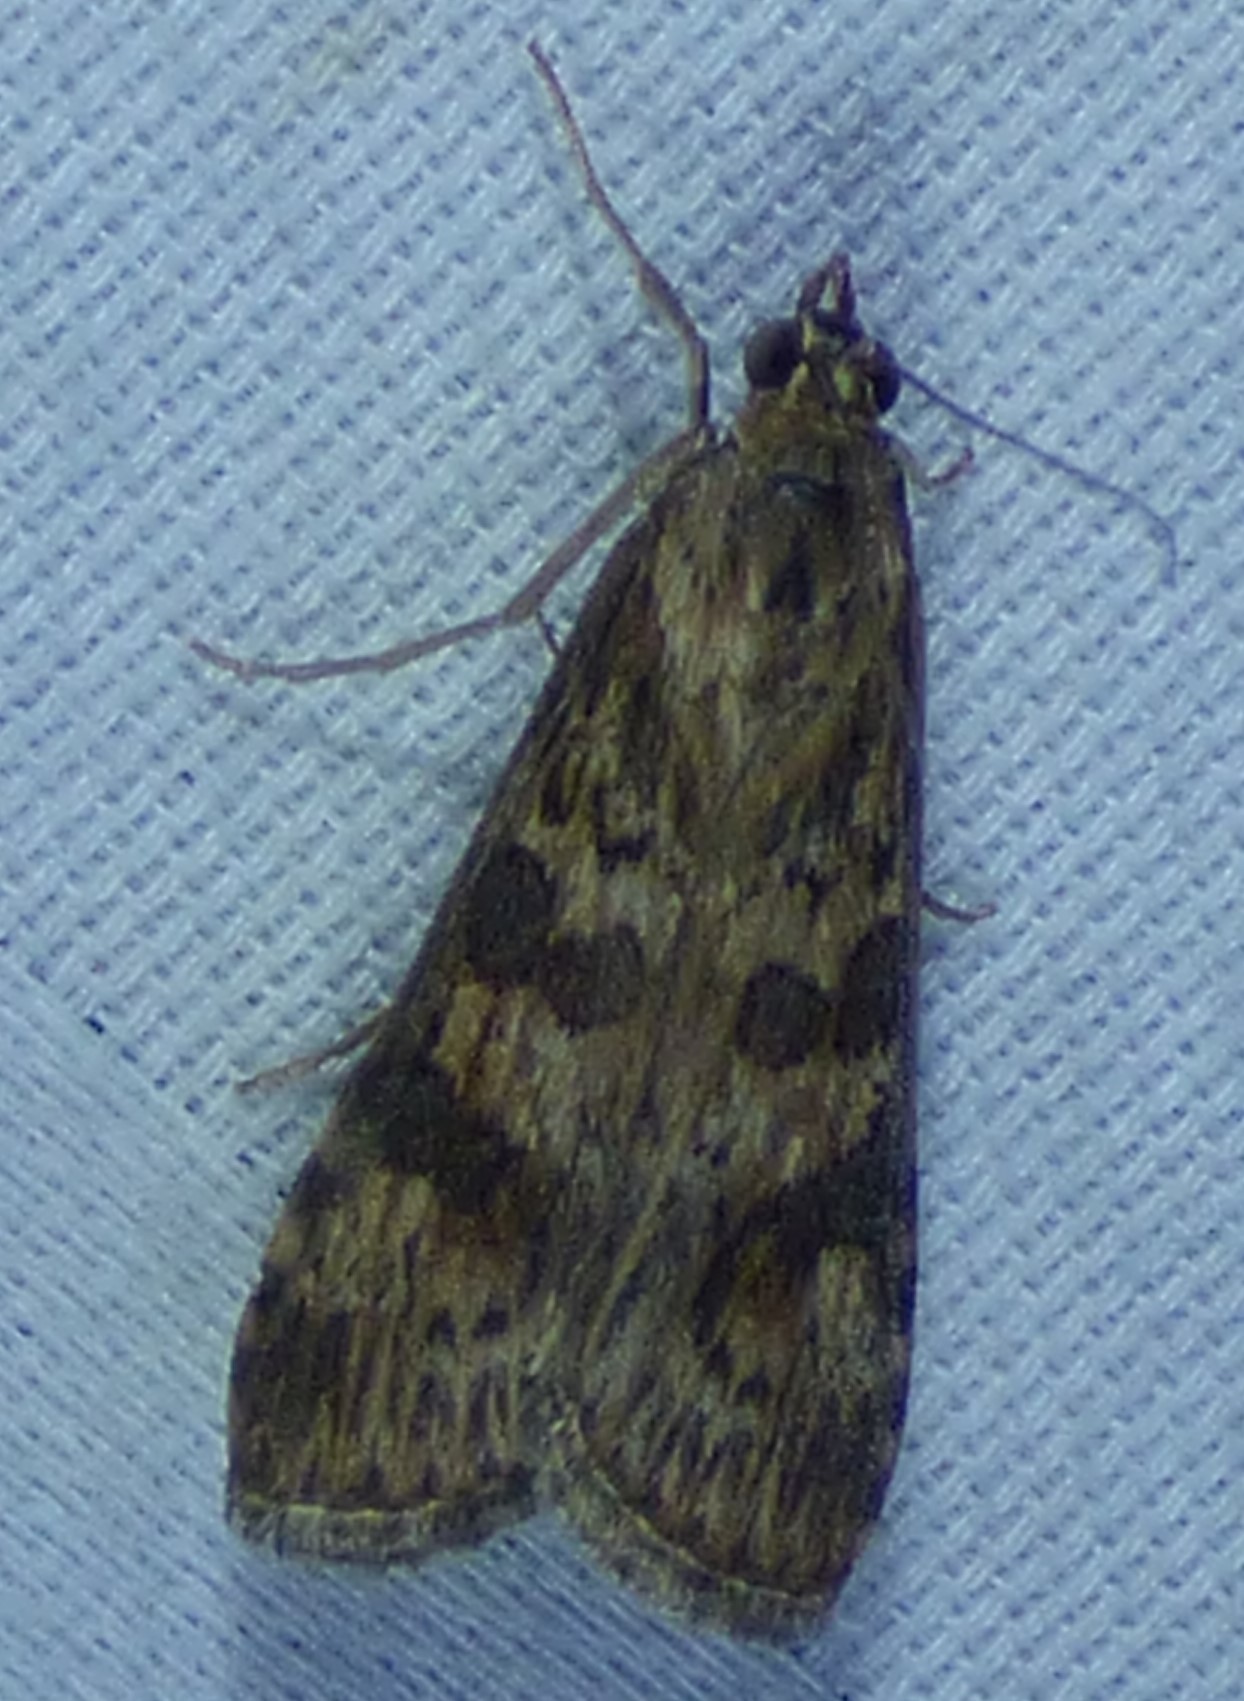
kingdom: Animalia
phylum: Arthropoda
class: Insecta
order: Lepidoptera
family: Crambidae
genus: Nomophila
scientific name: Nomophila nearctica
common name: American rush veneer
